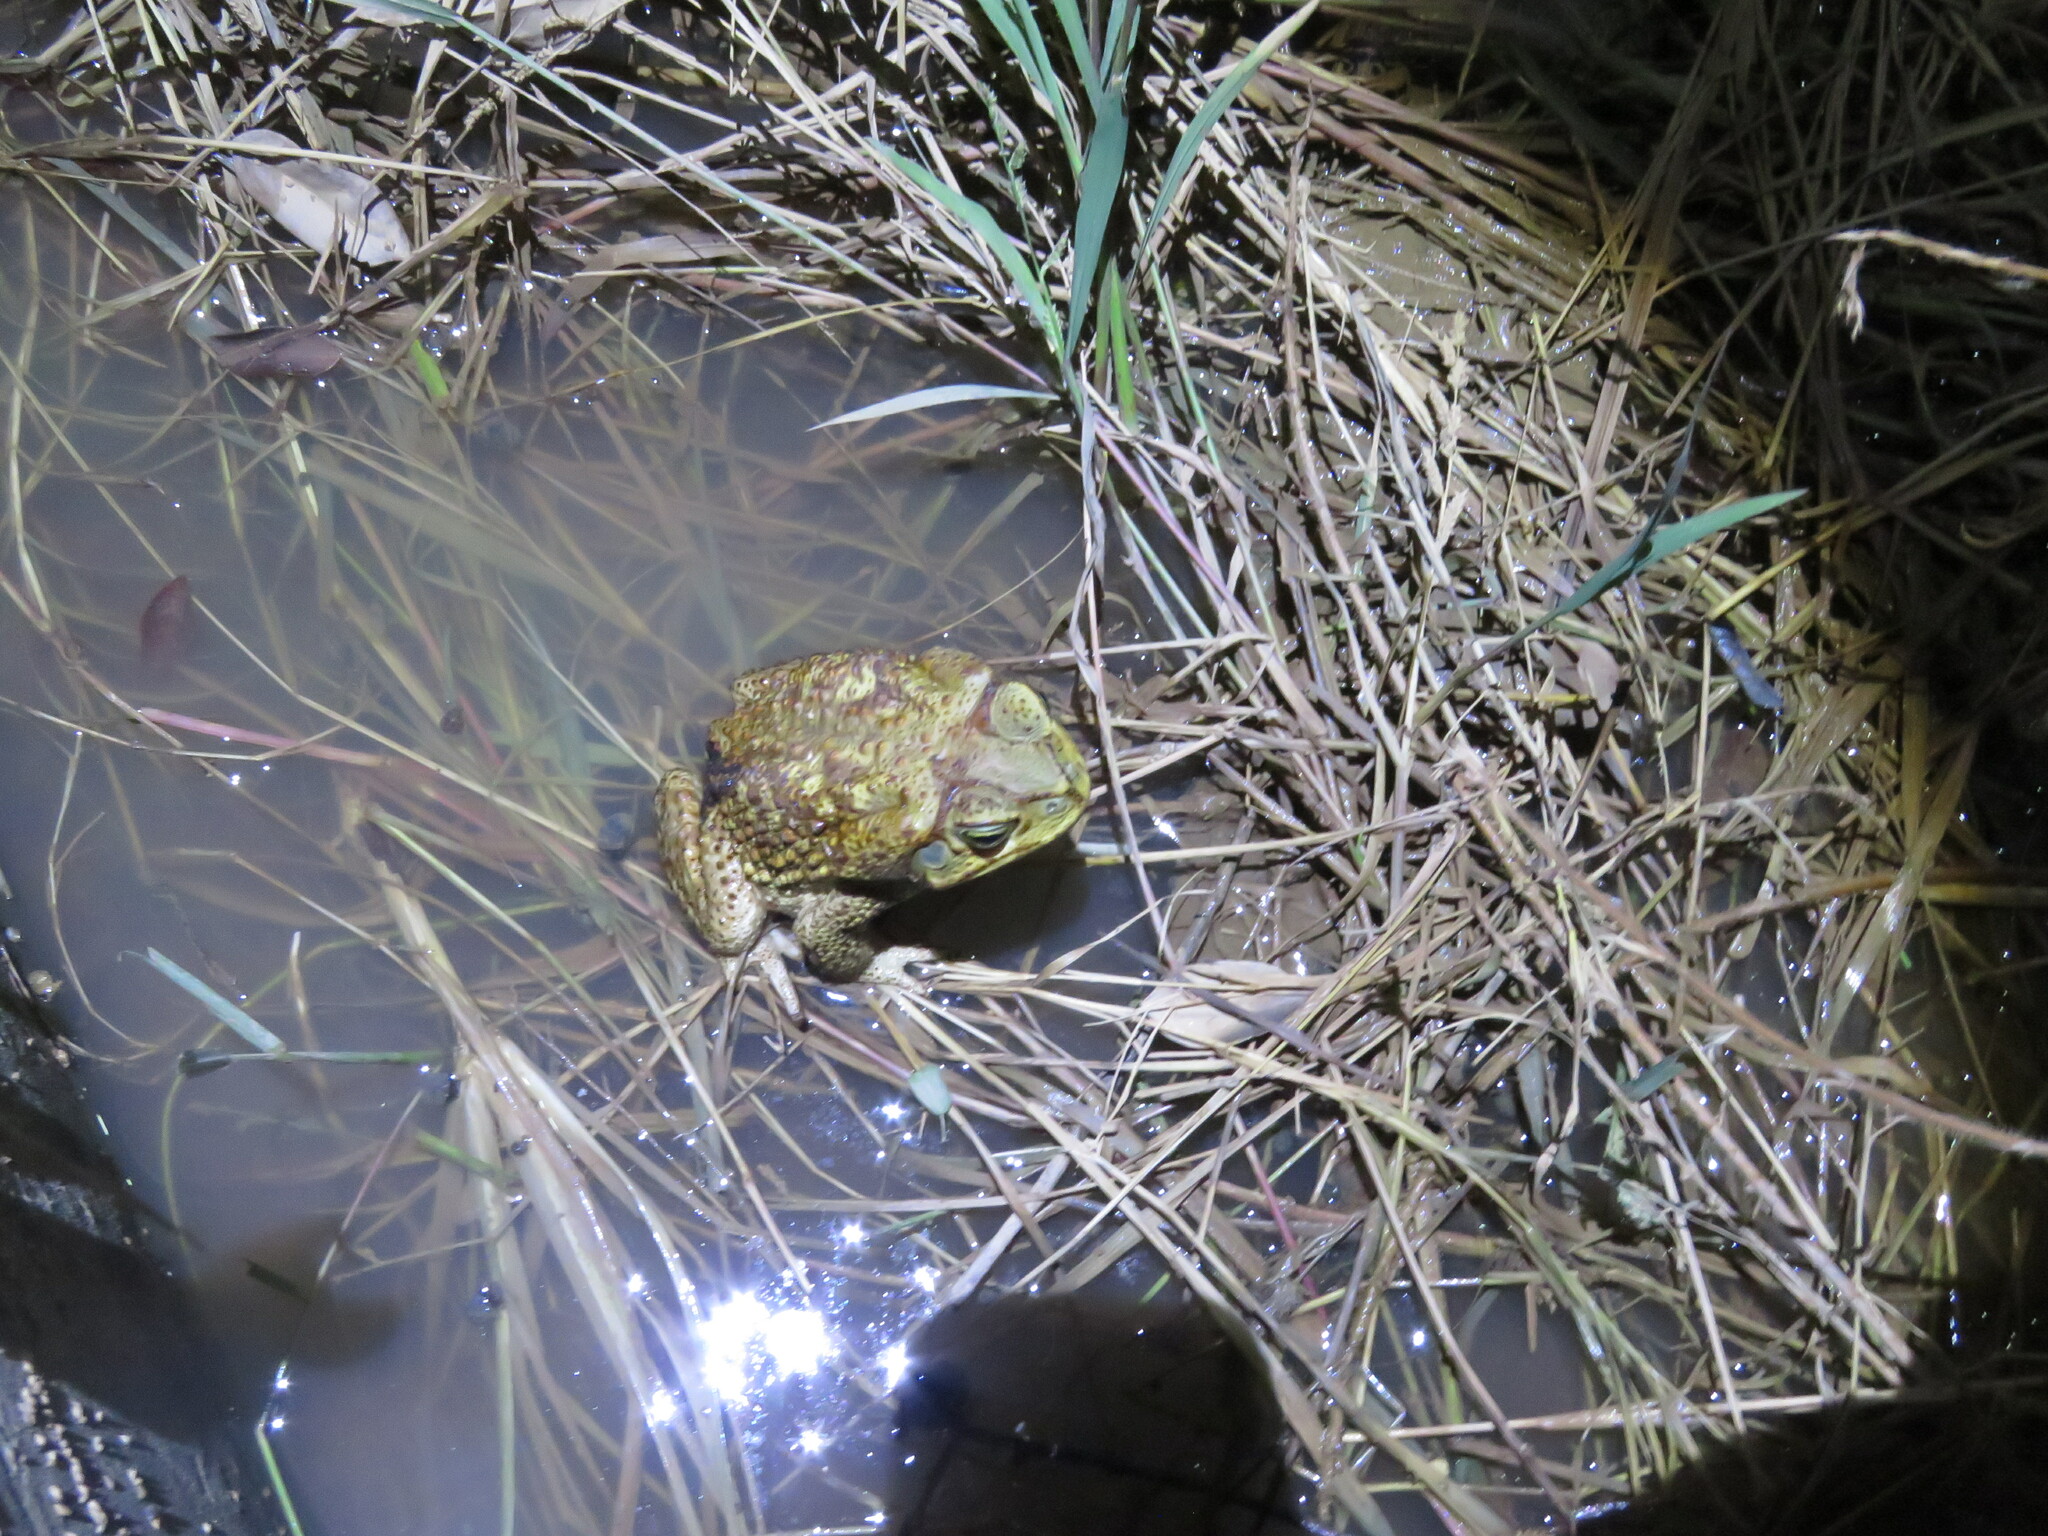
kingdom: Animalia
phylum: Chordata
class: Amphibia
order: Anura
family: Bufonidae
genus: Rhinella
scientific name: Rhinella diptycha
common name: Cope's toad
